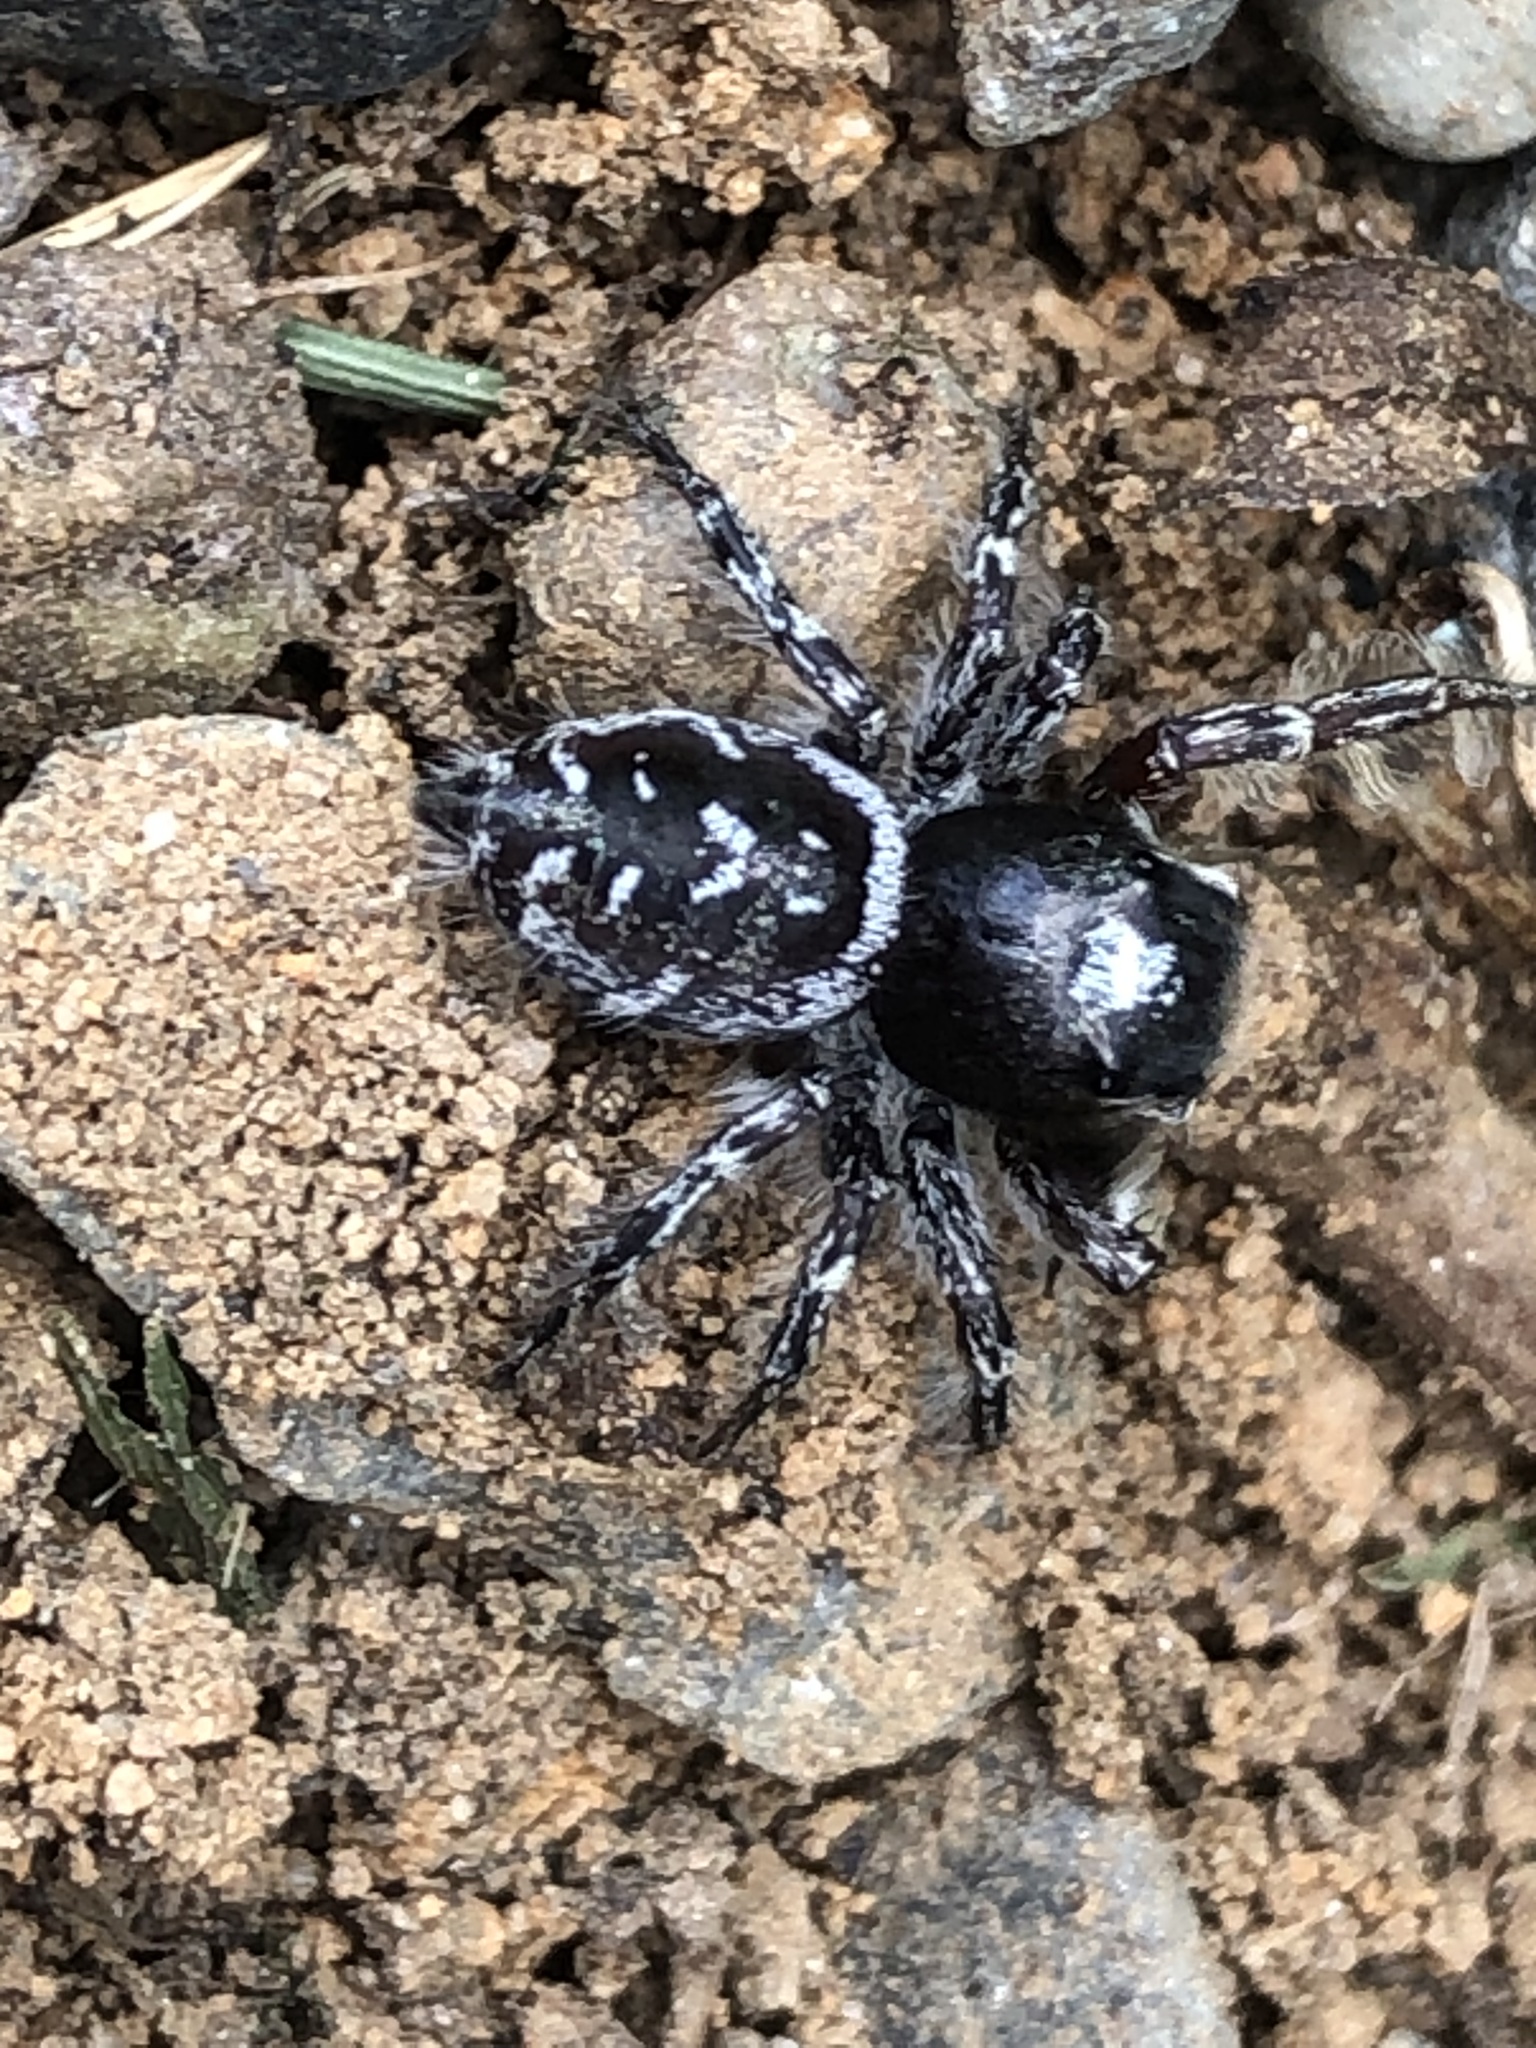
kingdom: Animalia
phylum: Arthropoda
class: Arachnida
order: Araneae
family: Salticidae
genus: Phidippus
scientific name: Phidippus putnami
